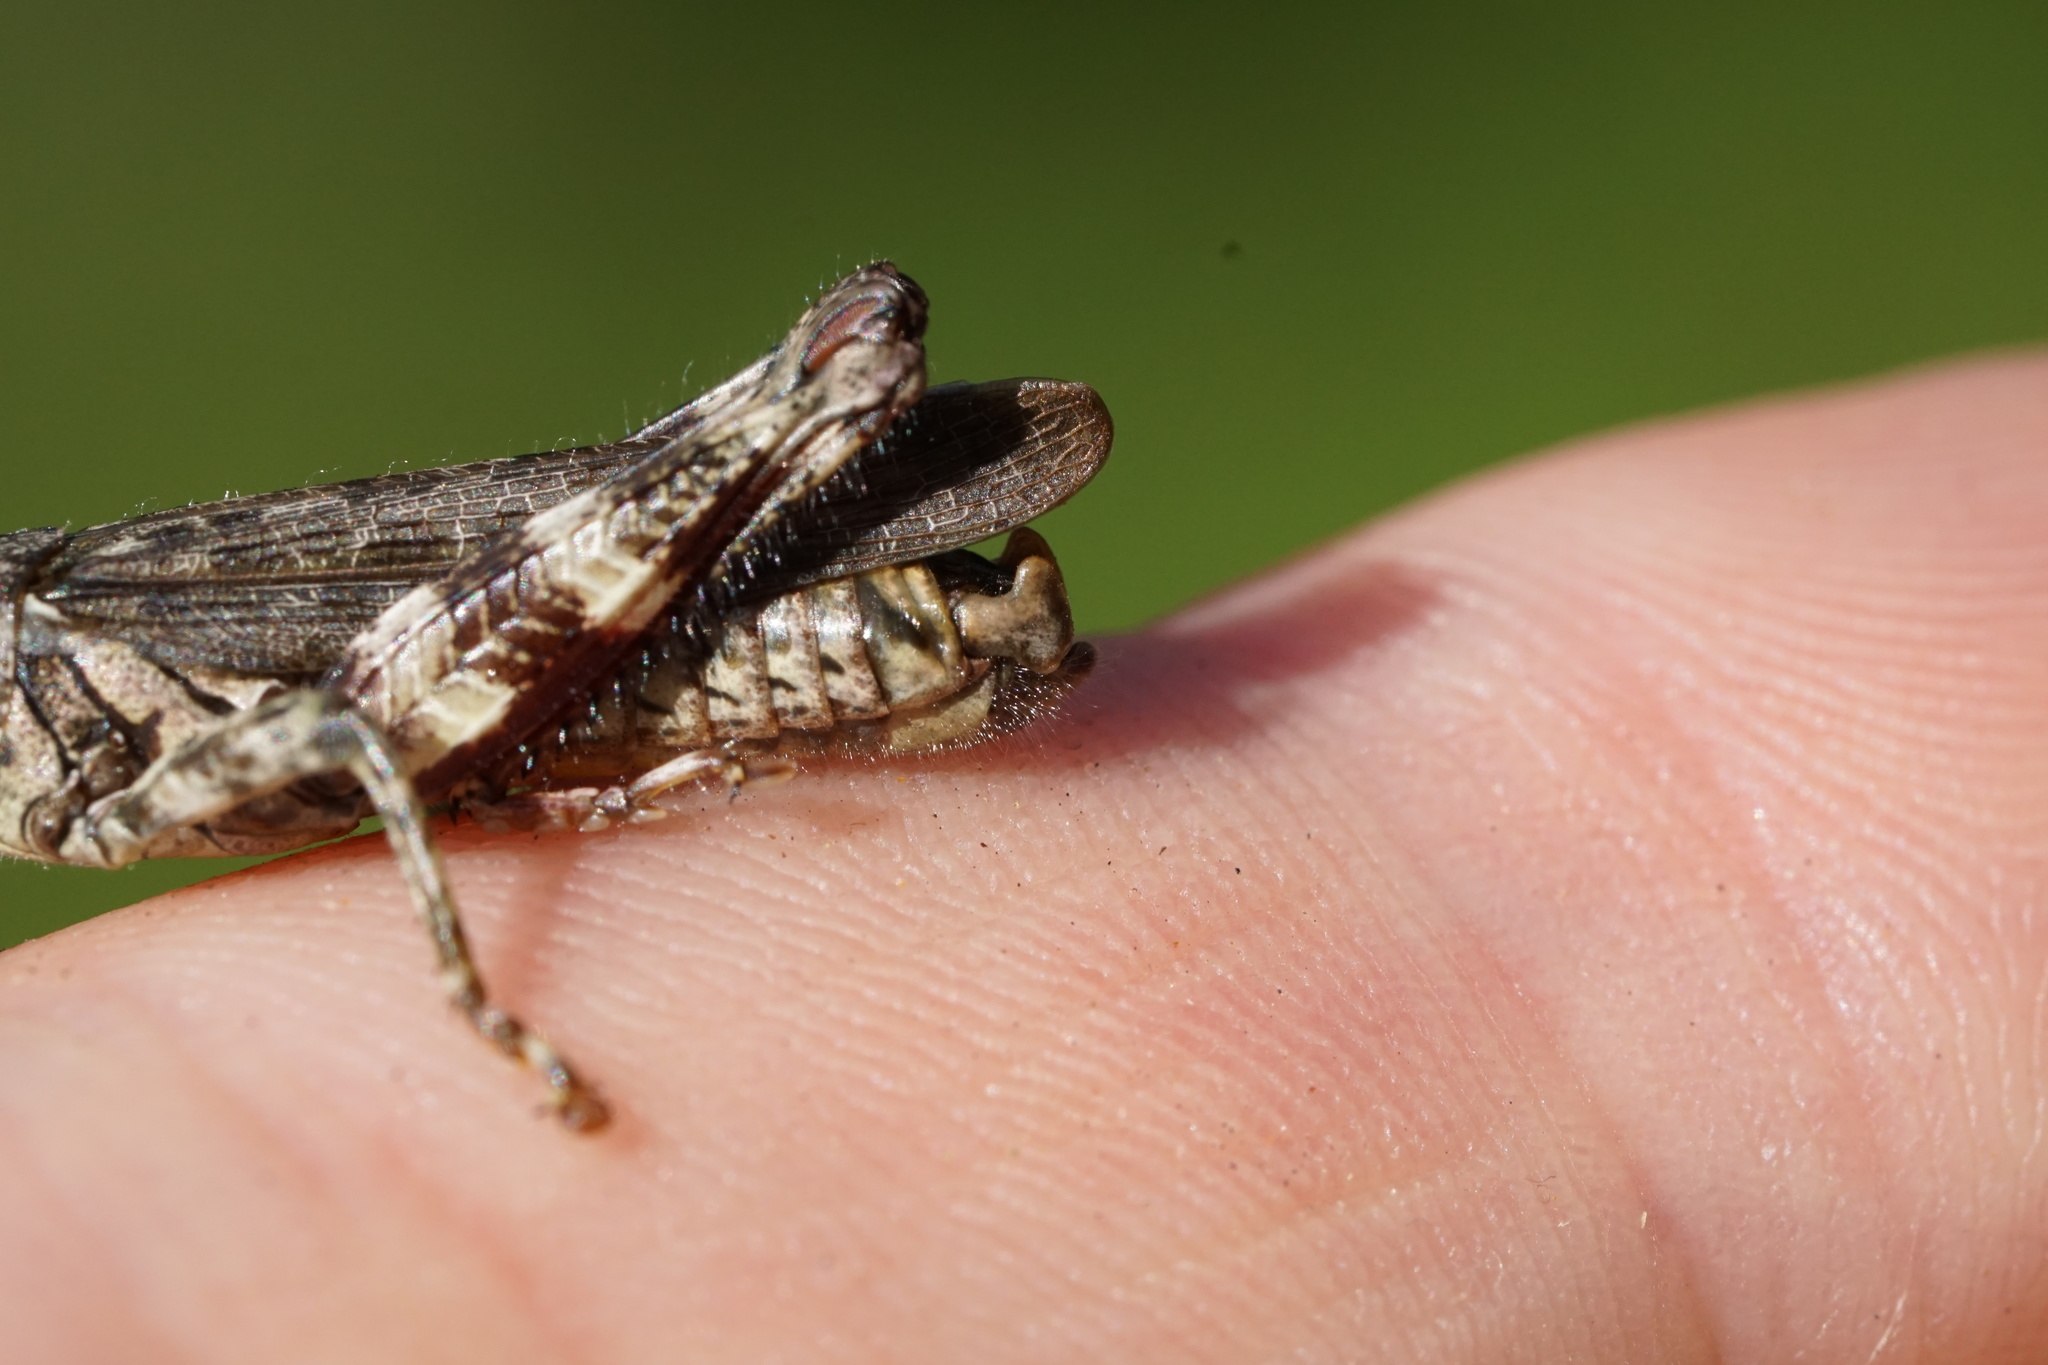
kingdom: Animalia
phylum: Arthropoda
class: Insecta
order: Orthoptera
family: Acrididae
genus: Melanoplus
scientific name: Melanoplus punctulatus
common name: Pine-tree spur-throat grasshopper
